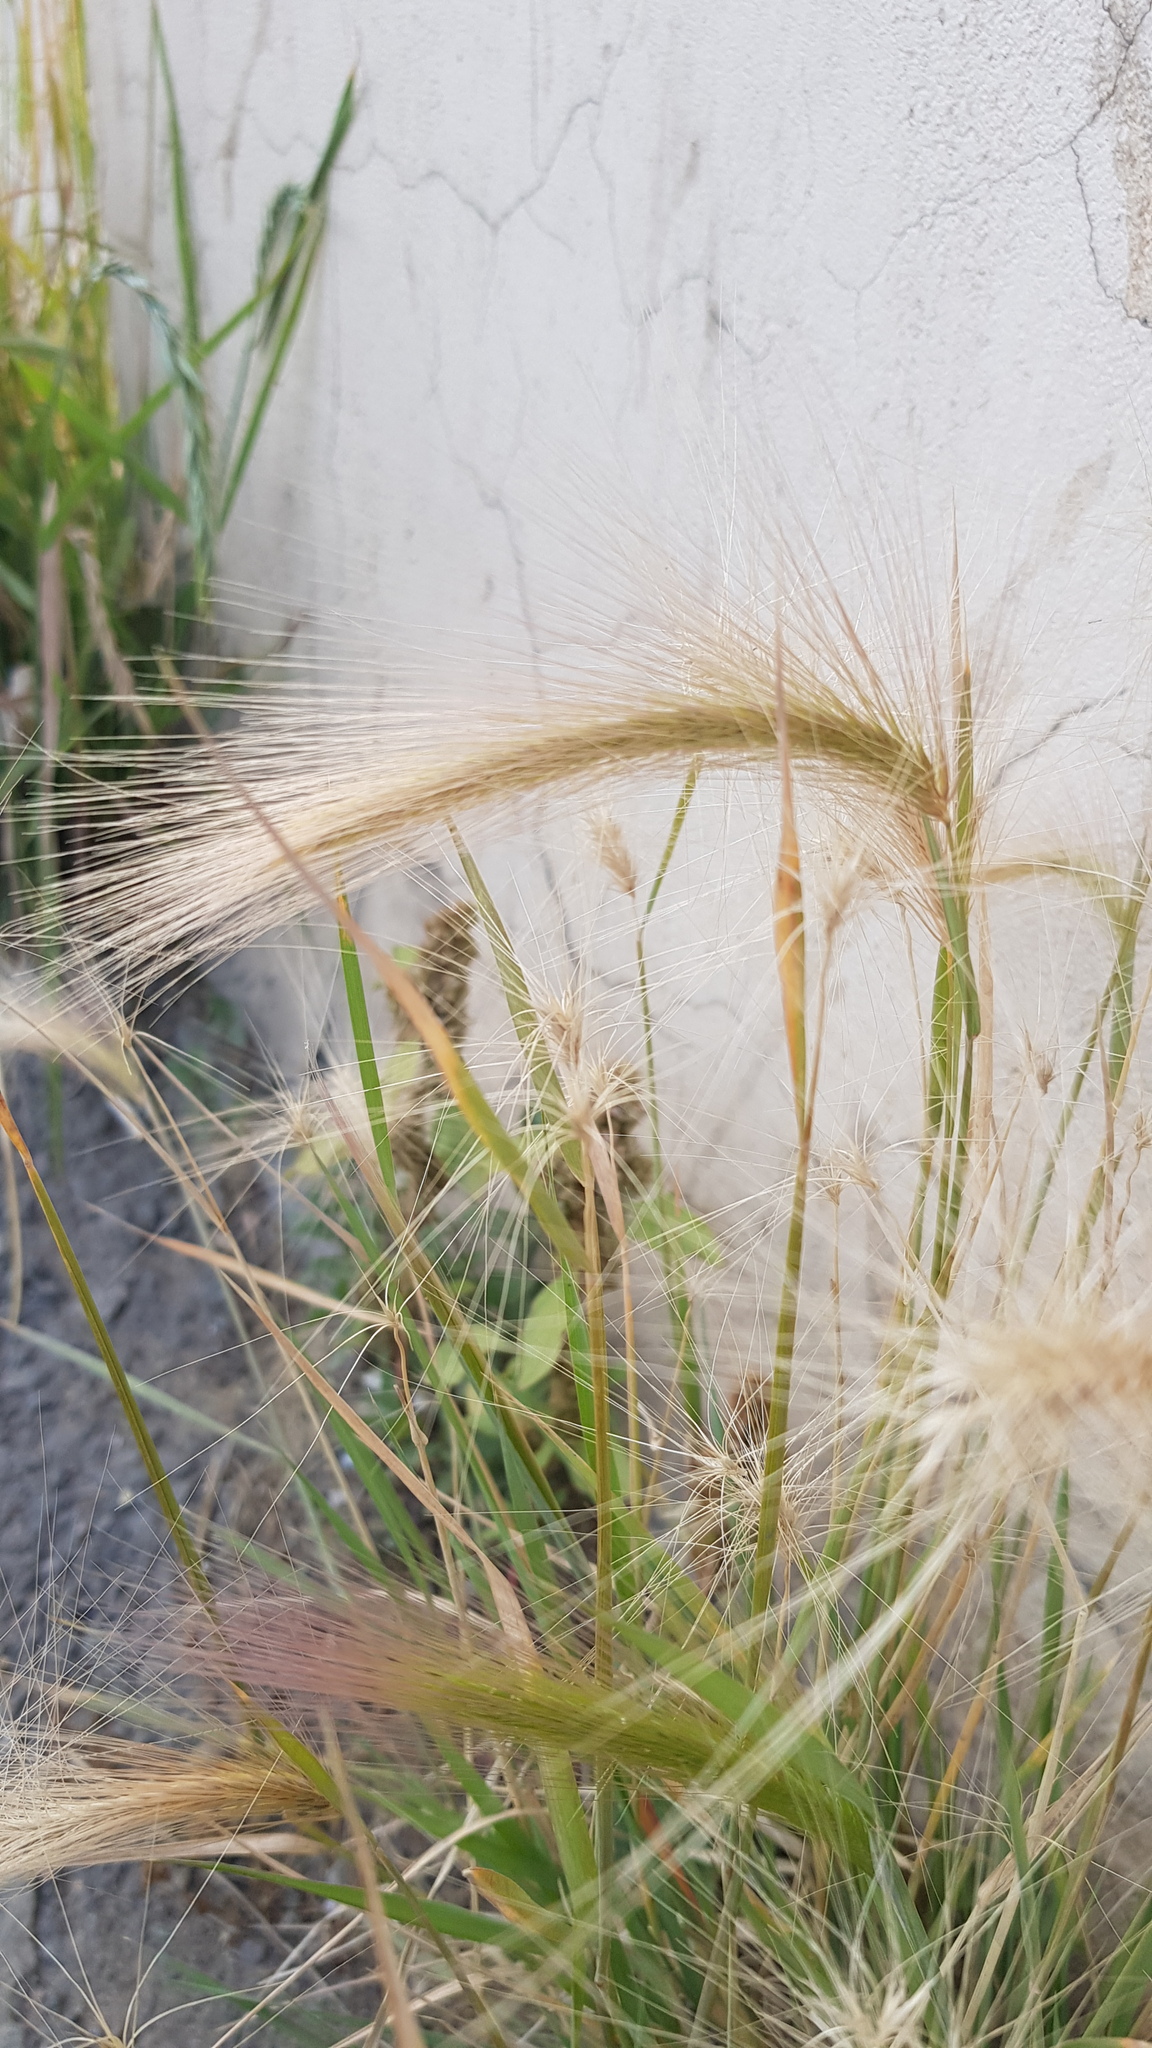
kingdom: Plantae
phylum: Tracheophyta
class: Liliopsida
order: Poales
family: Poaceae
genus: Hordeum
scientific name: Hordeum jubatum
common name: Foxtail barley
